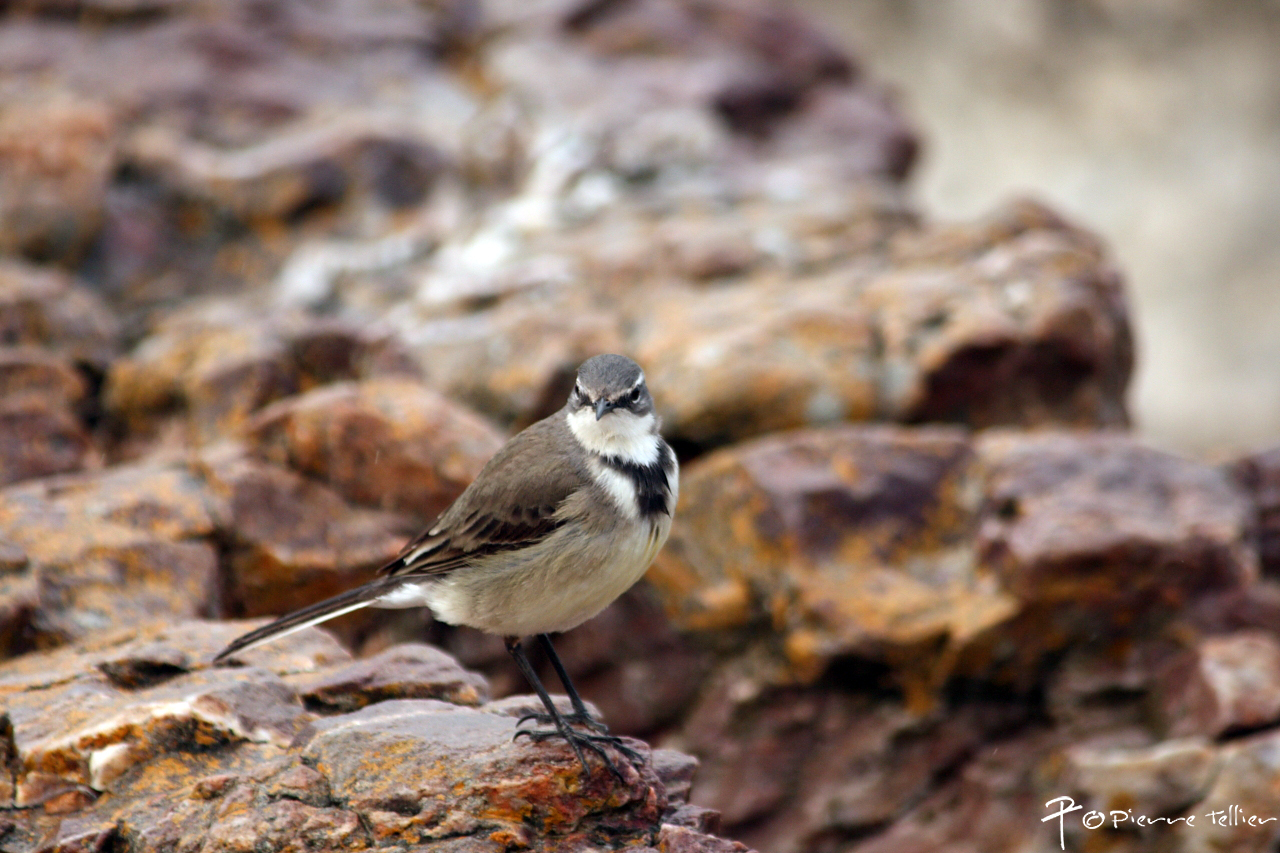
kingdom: Animalia
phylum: Chordata
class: Aves
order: Passeriformes
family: Motacillidae
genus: Motacilla
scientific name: Motacilla capensis
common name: Cape wagtail
